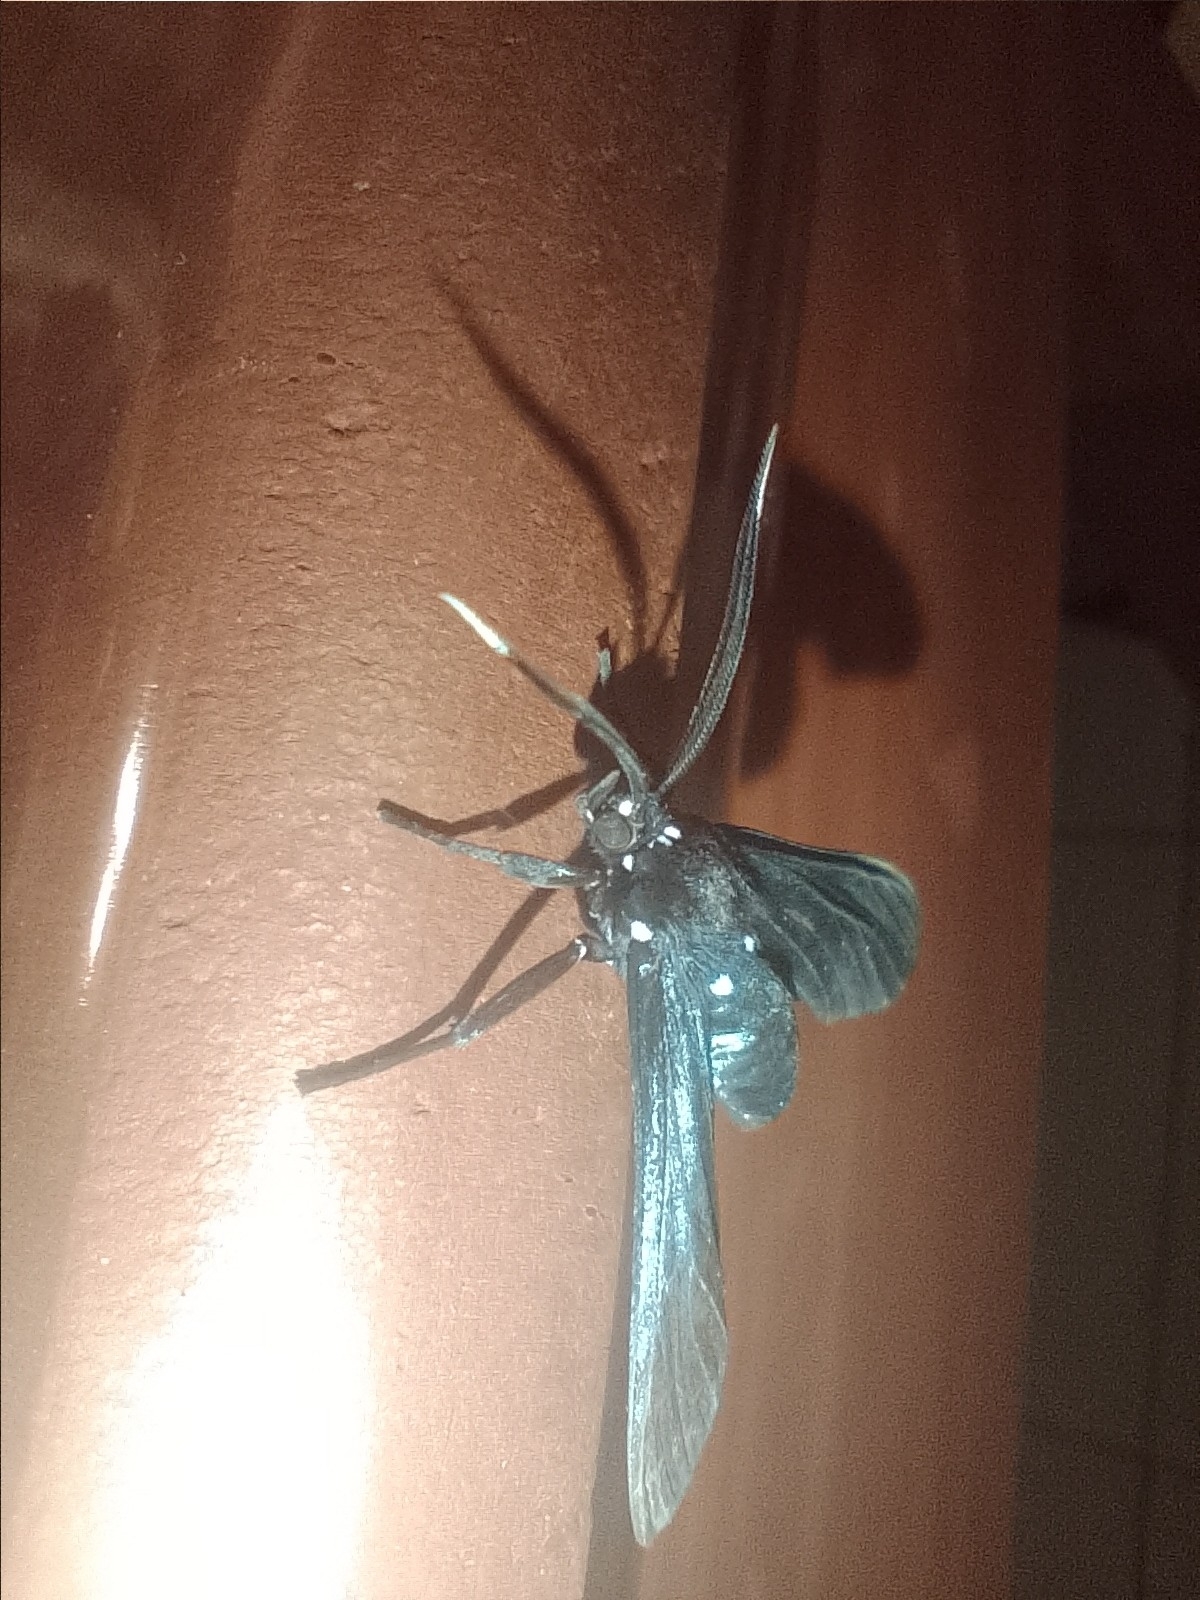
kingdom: Animalia
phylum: Arthropoda
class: Insecta
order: Lepidoptera
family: Erebidae
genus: Macrocneme
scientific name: Macrocneme leucostigma
